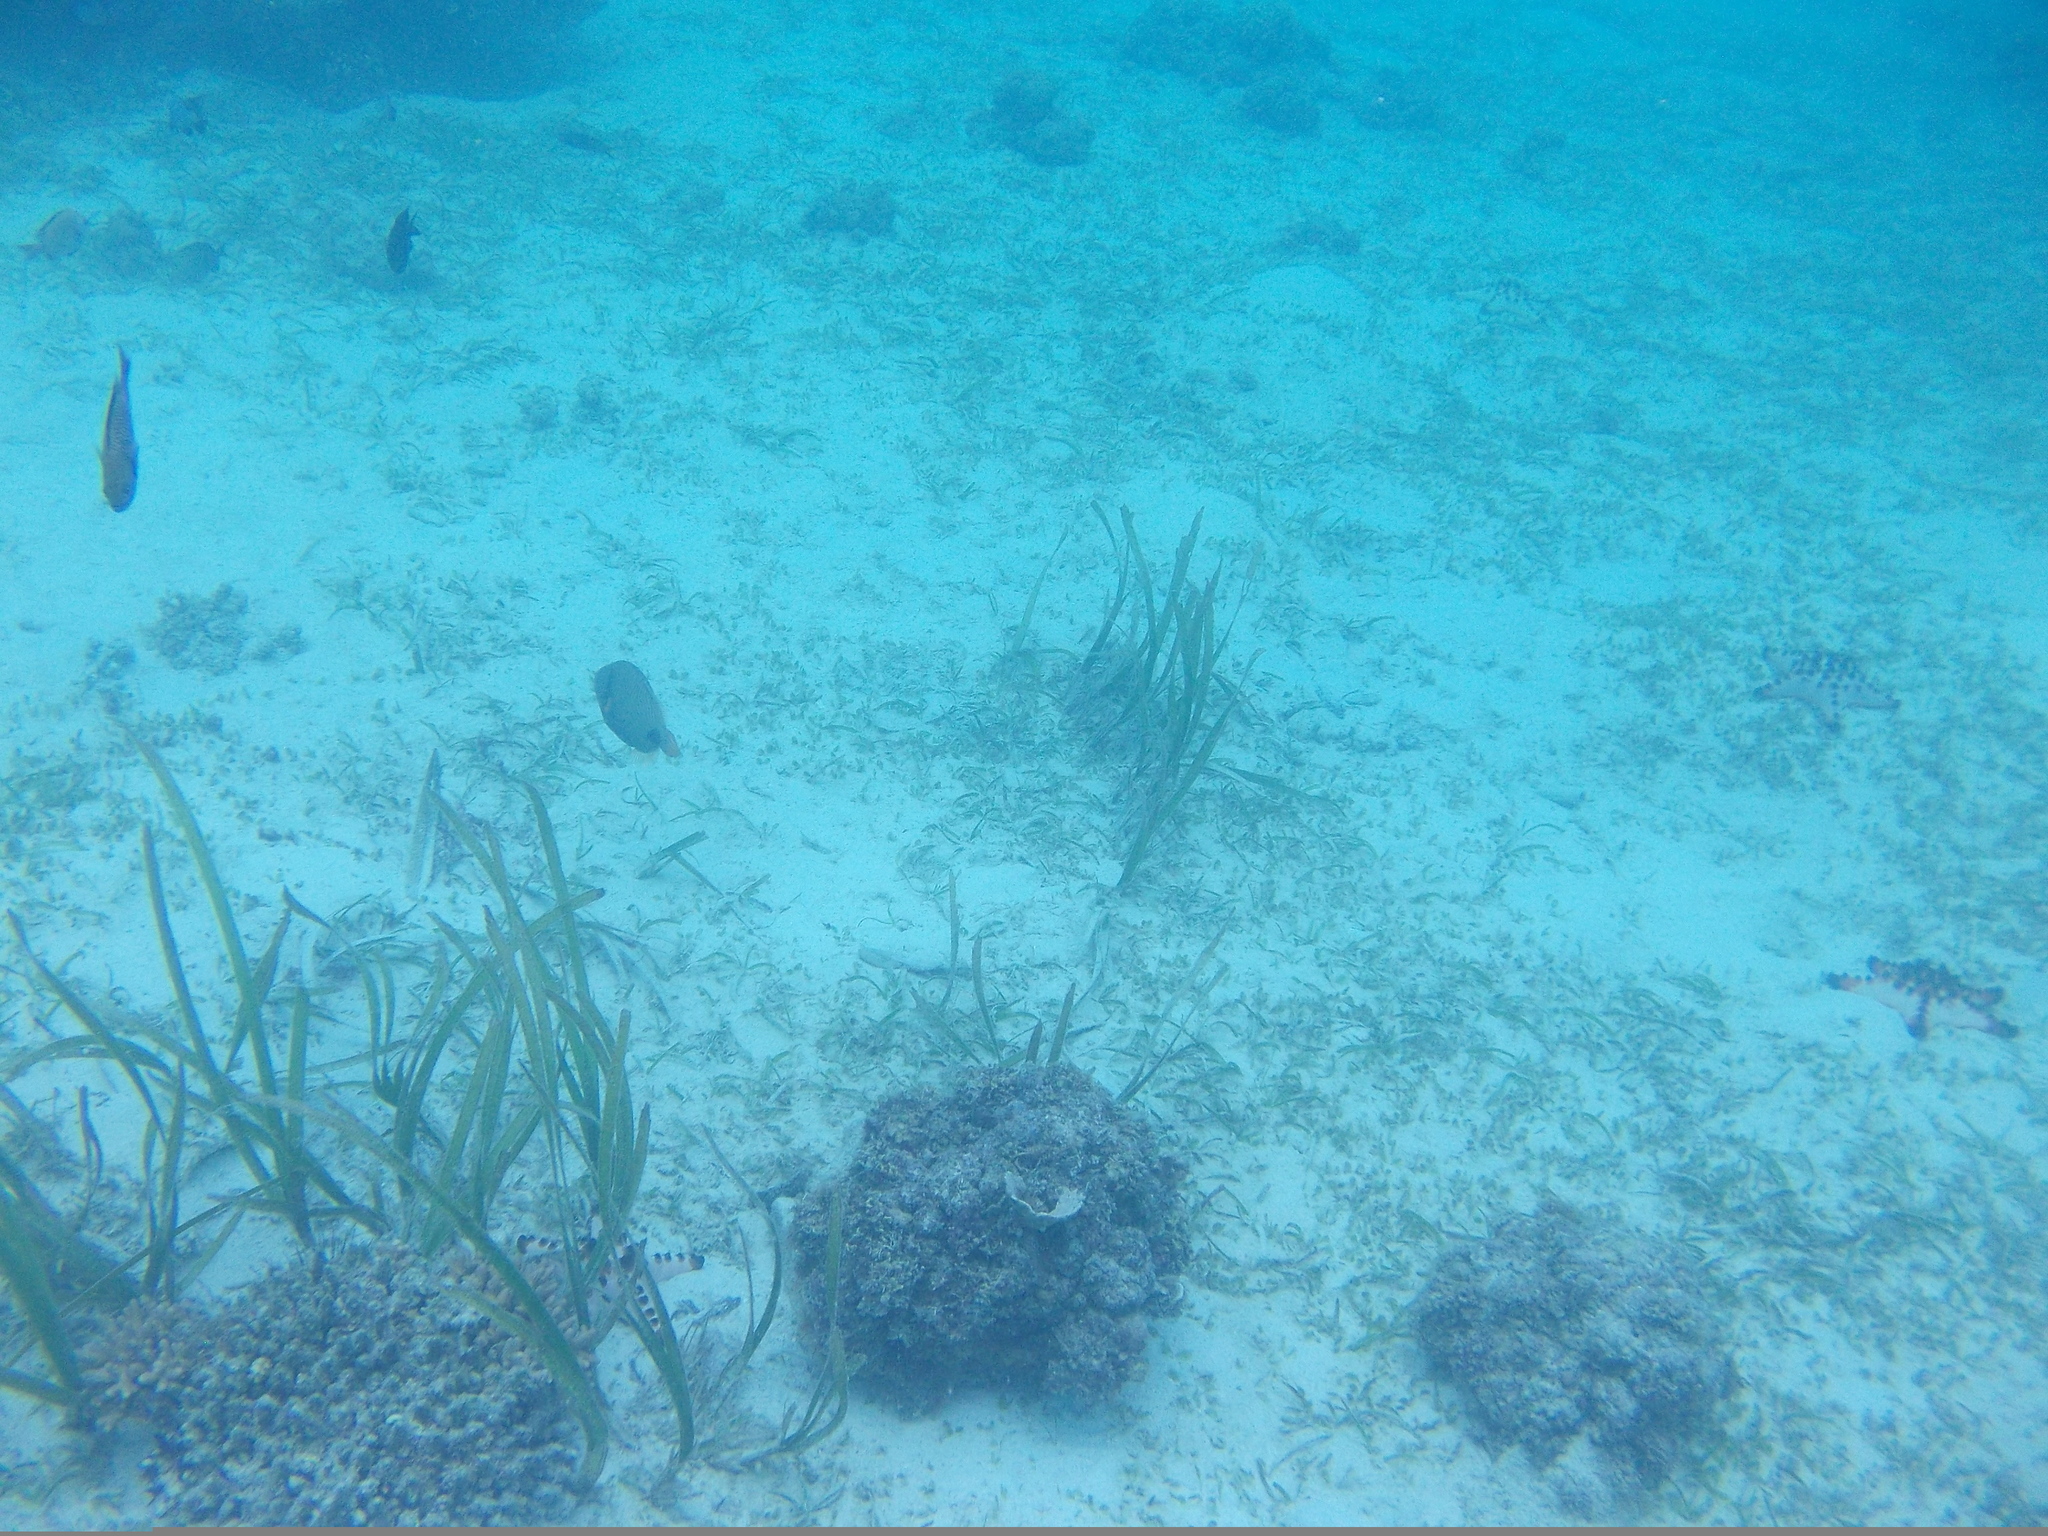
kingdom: Animalia
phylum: Chordata
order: Tetraodontiformes
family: Balistidae
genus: Balistapus
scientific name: Balistapus undulatus
